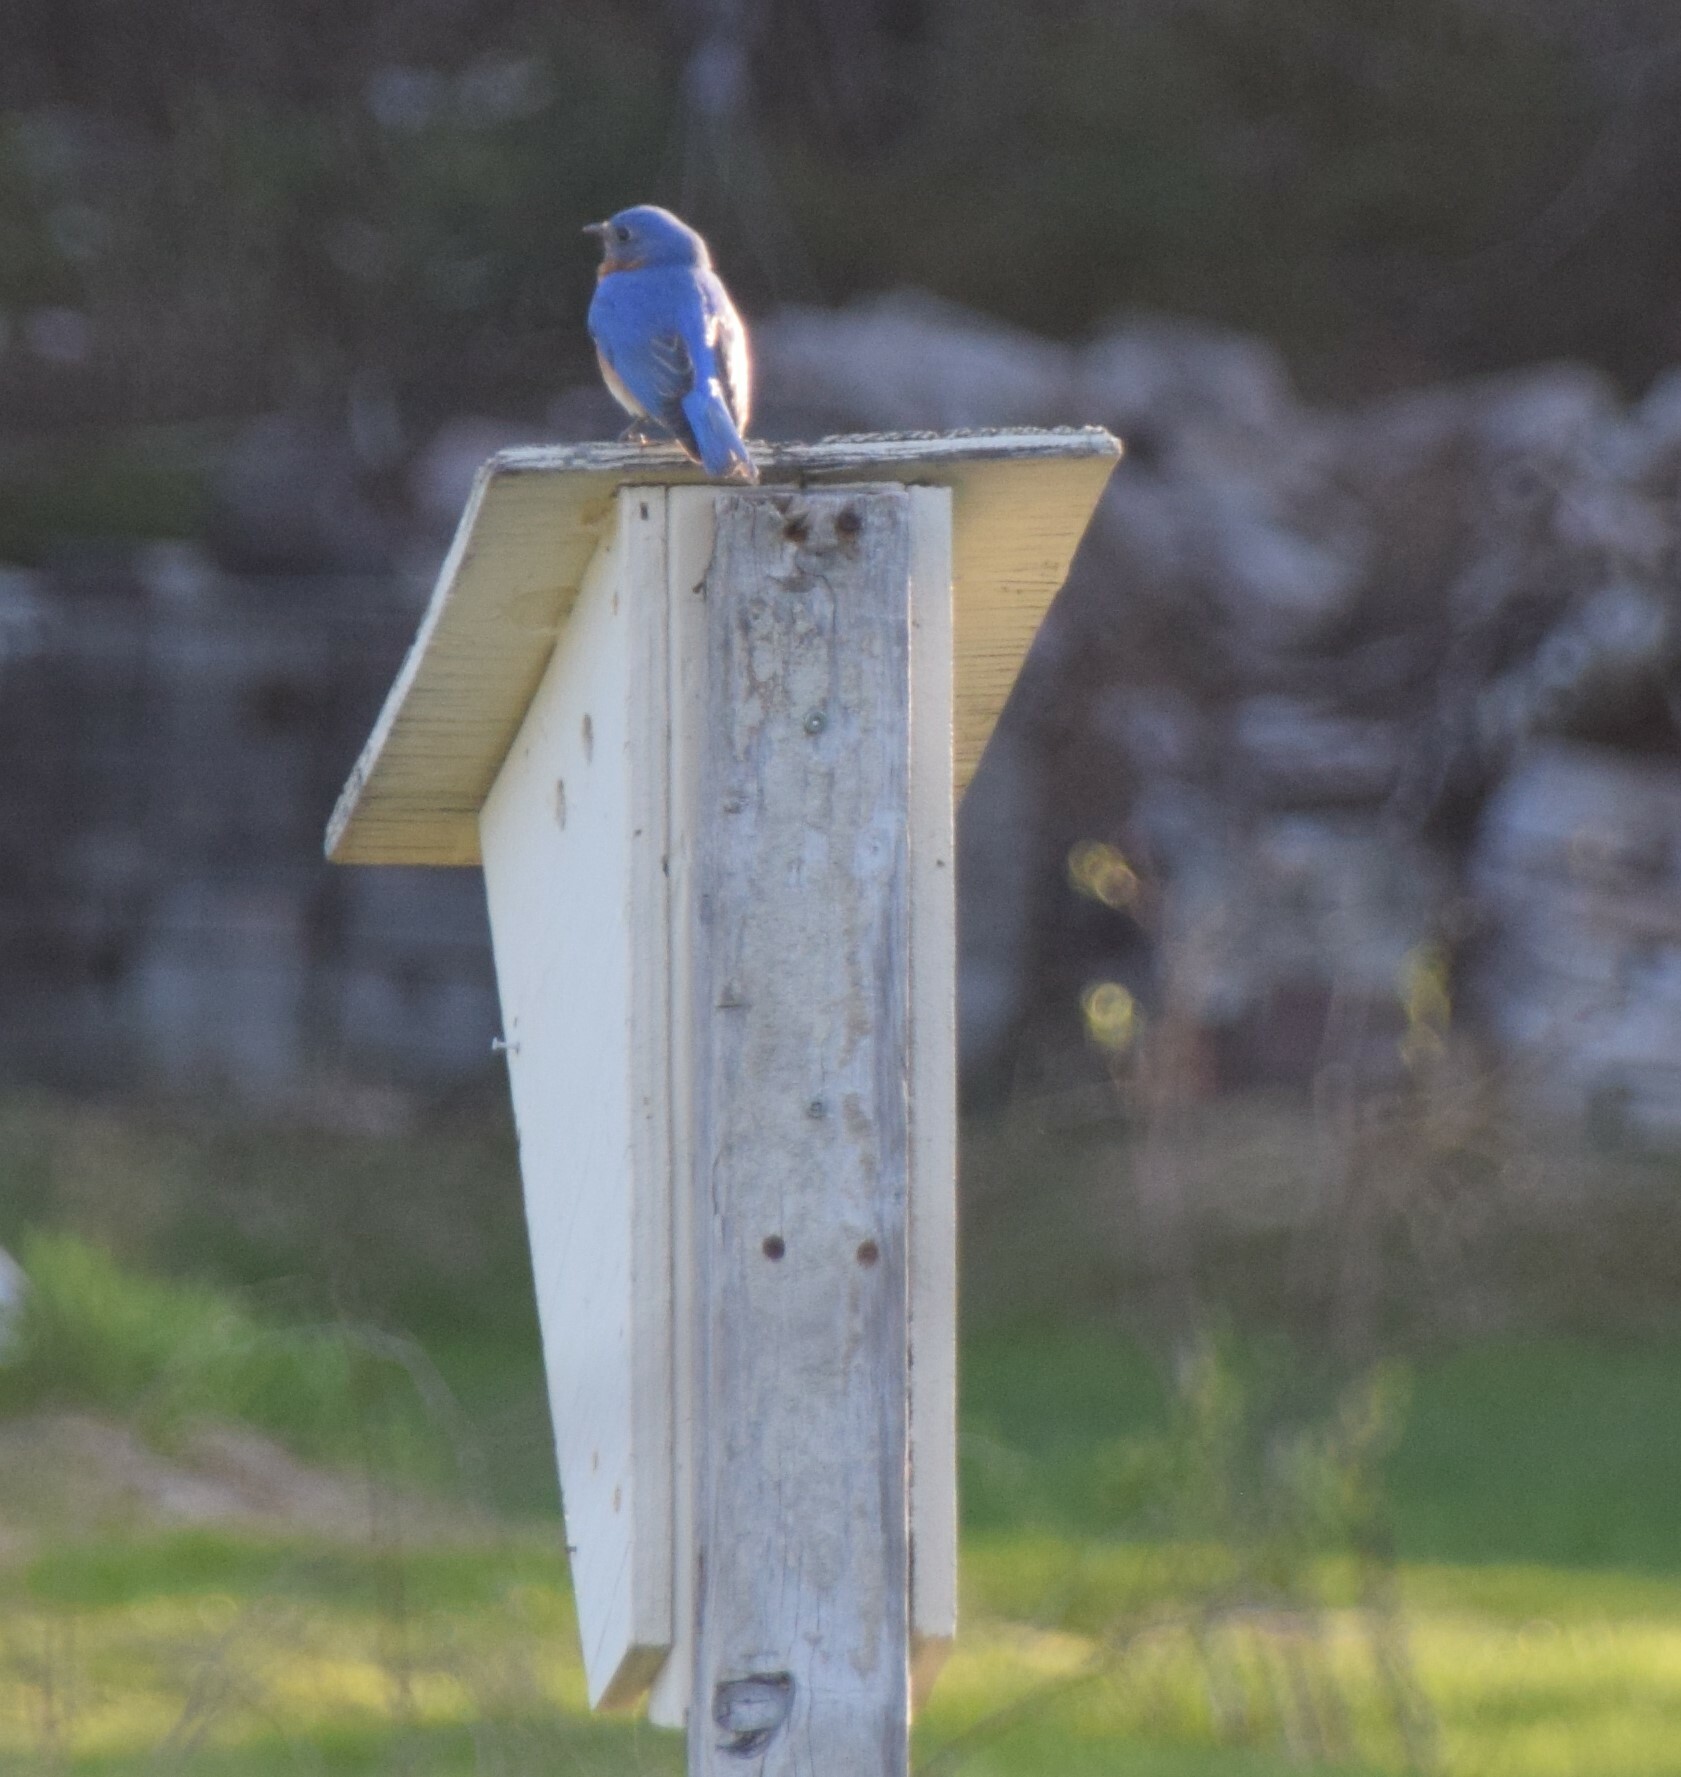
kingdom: Animalia
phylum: Chordata
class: Aves
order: Passeriformes
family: Turdidae
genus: Sialia
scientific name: Sialia sialis
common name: Eastern bluebird
